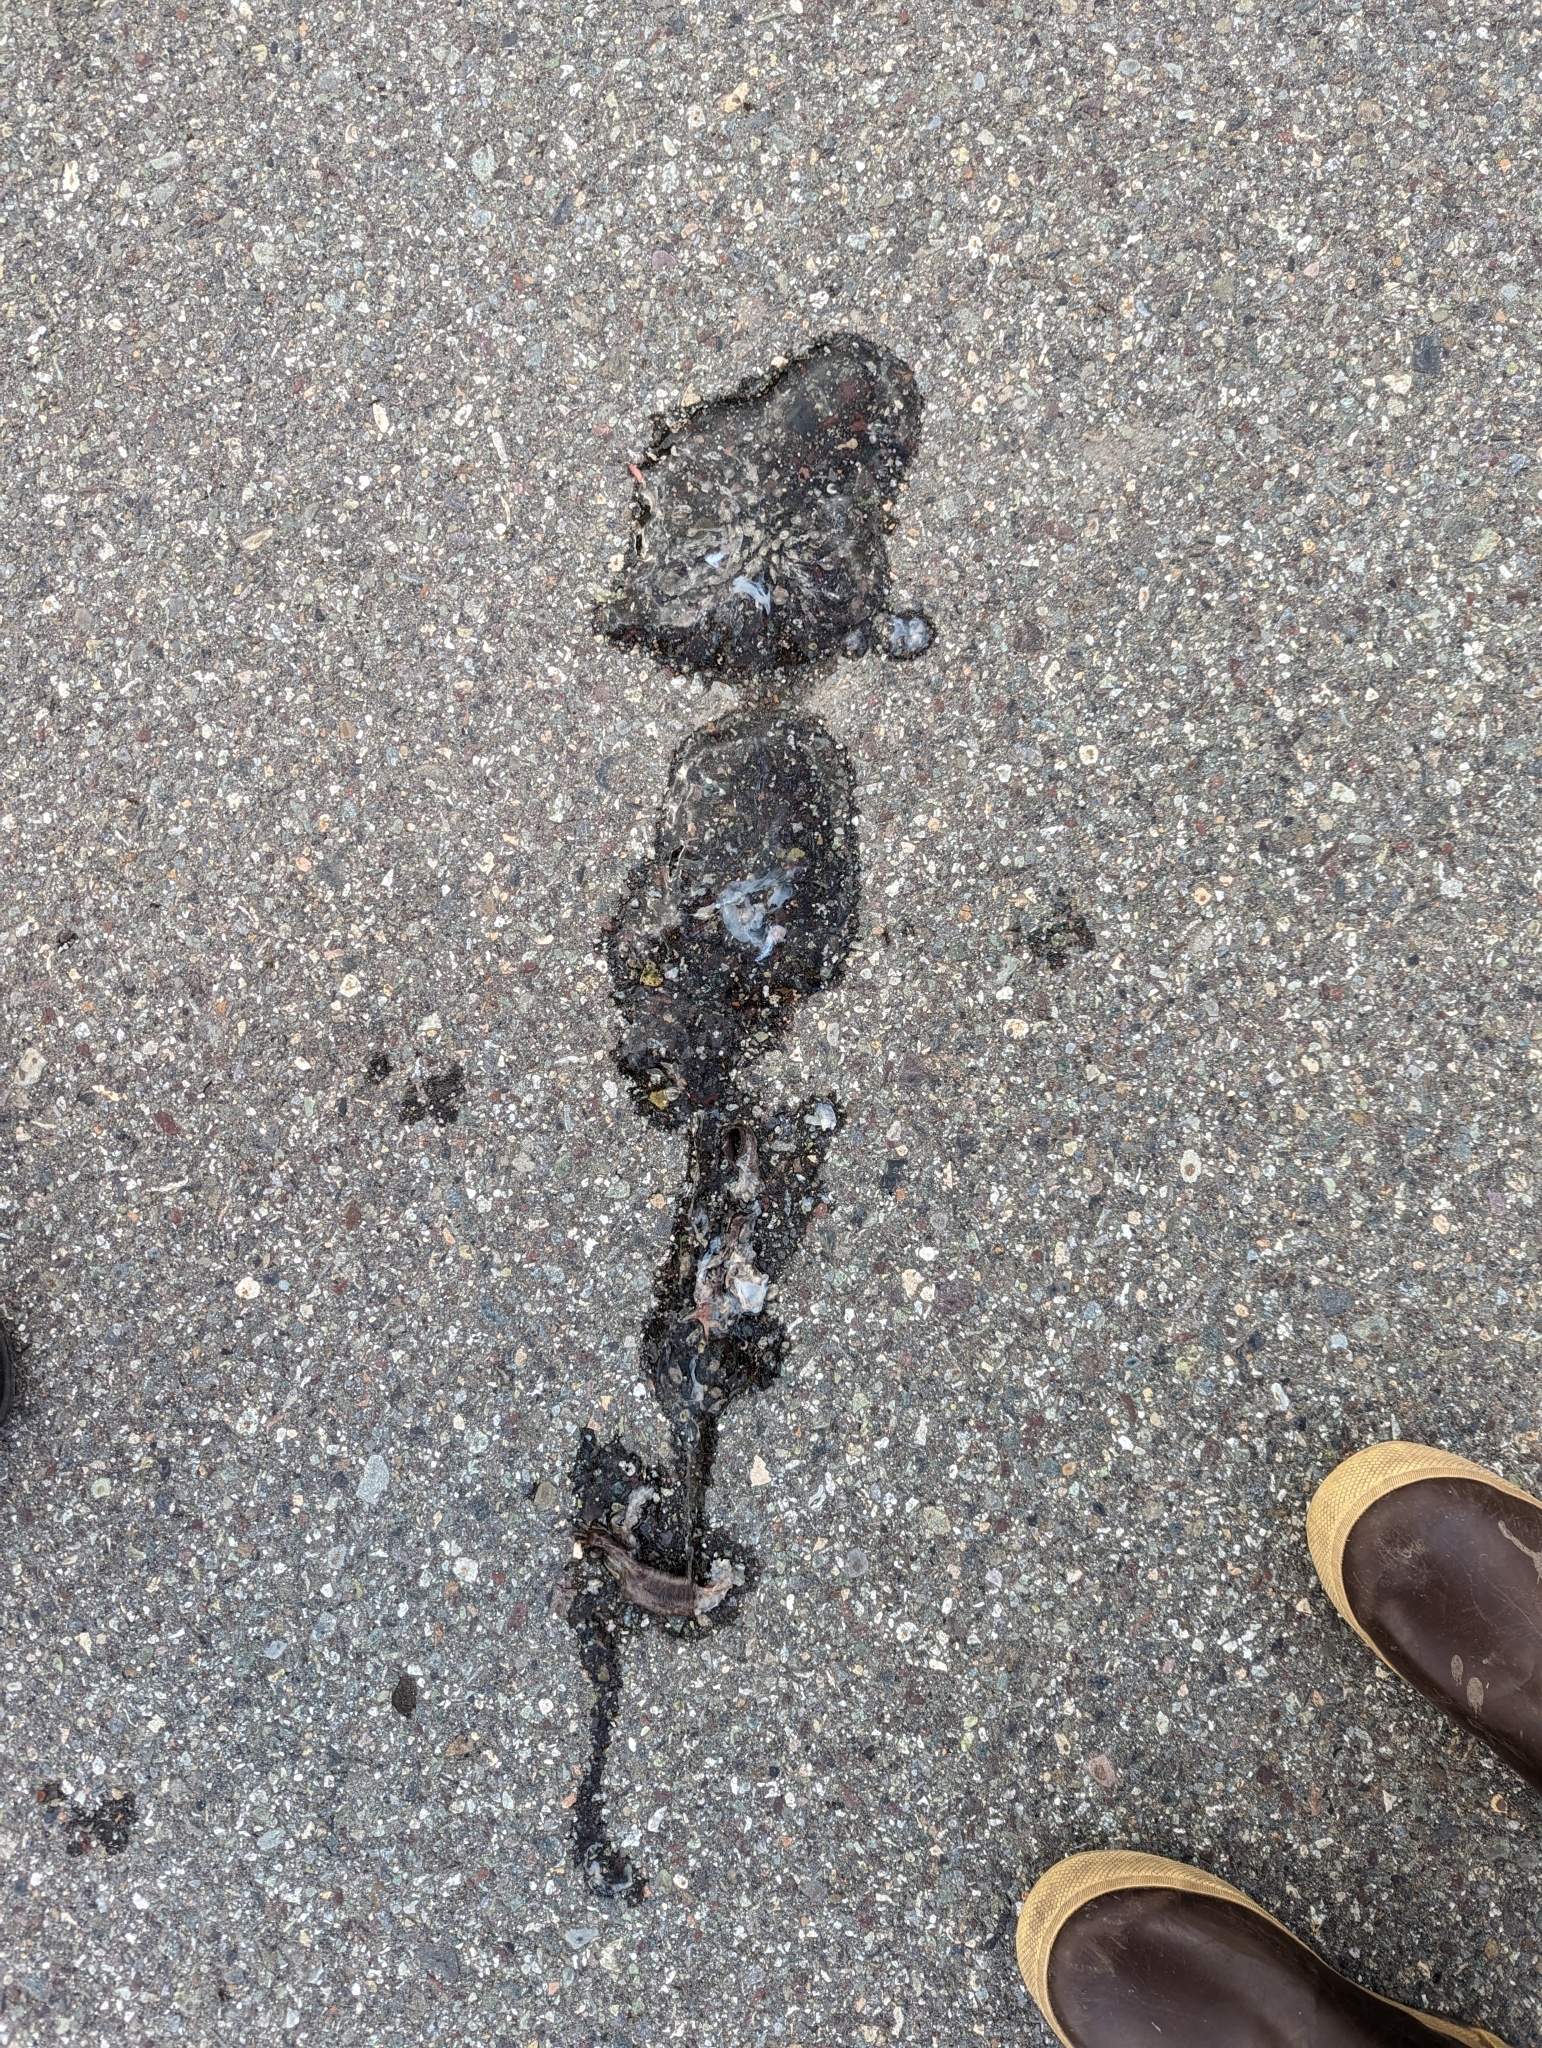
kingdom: Animalia
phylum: Chordata
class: Amphibia
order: Caudata
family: Ambystomatidae
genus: Ambystoma
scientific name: Ambystoma gracile
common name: Northwestern salamander
